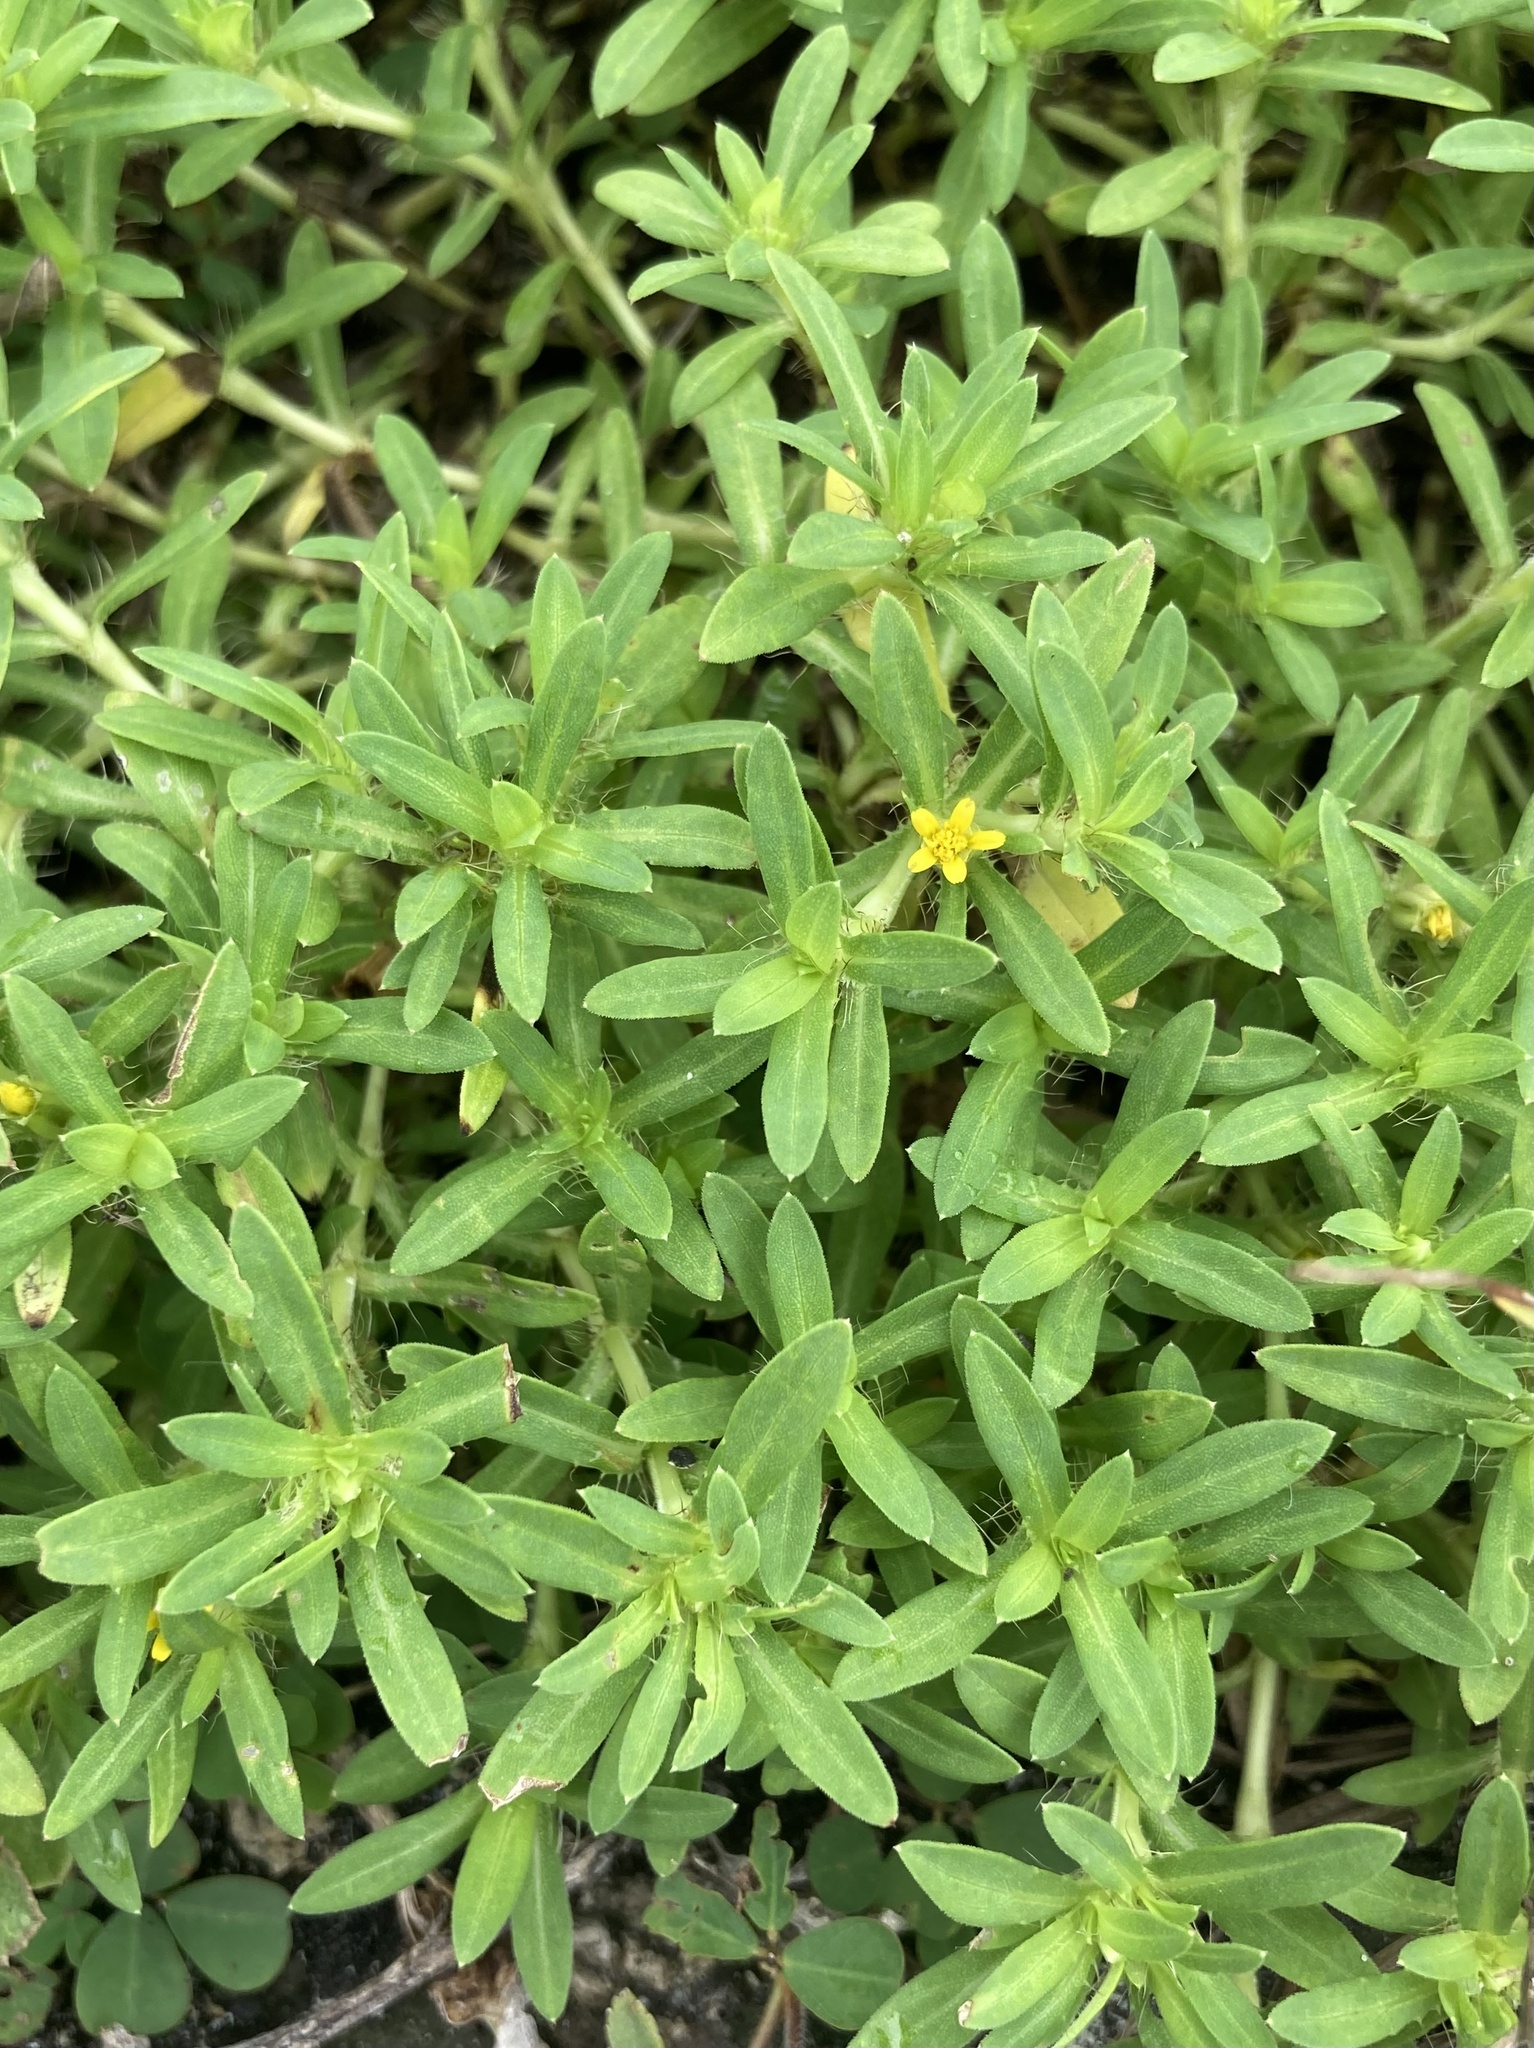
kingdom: Plantae
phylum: Tracheophyta
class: Magnoliopsida
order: Asterales
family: Asteraceae
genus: Pectis
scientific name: Pectis prostrata
